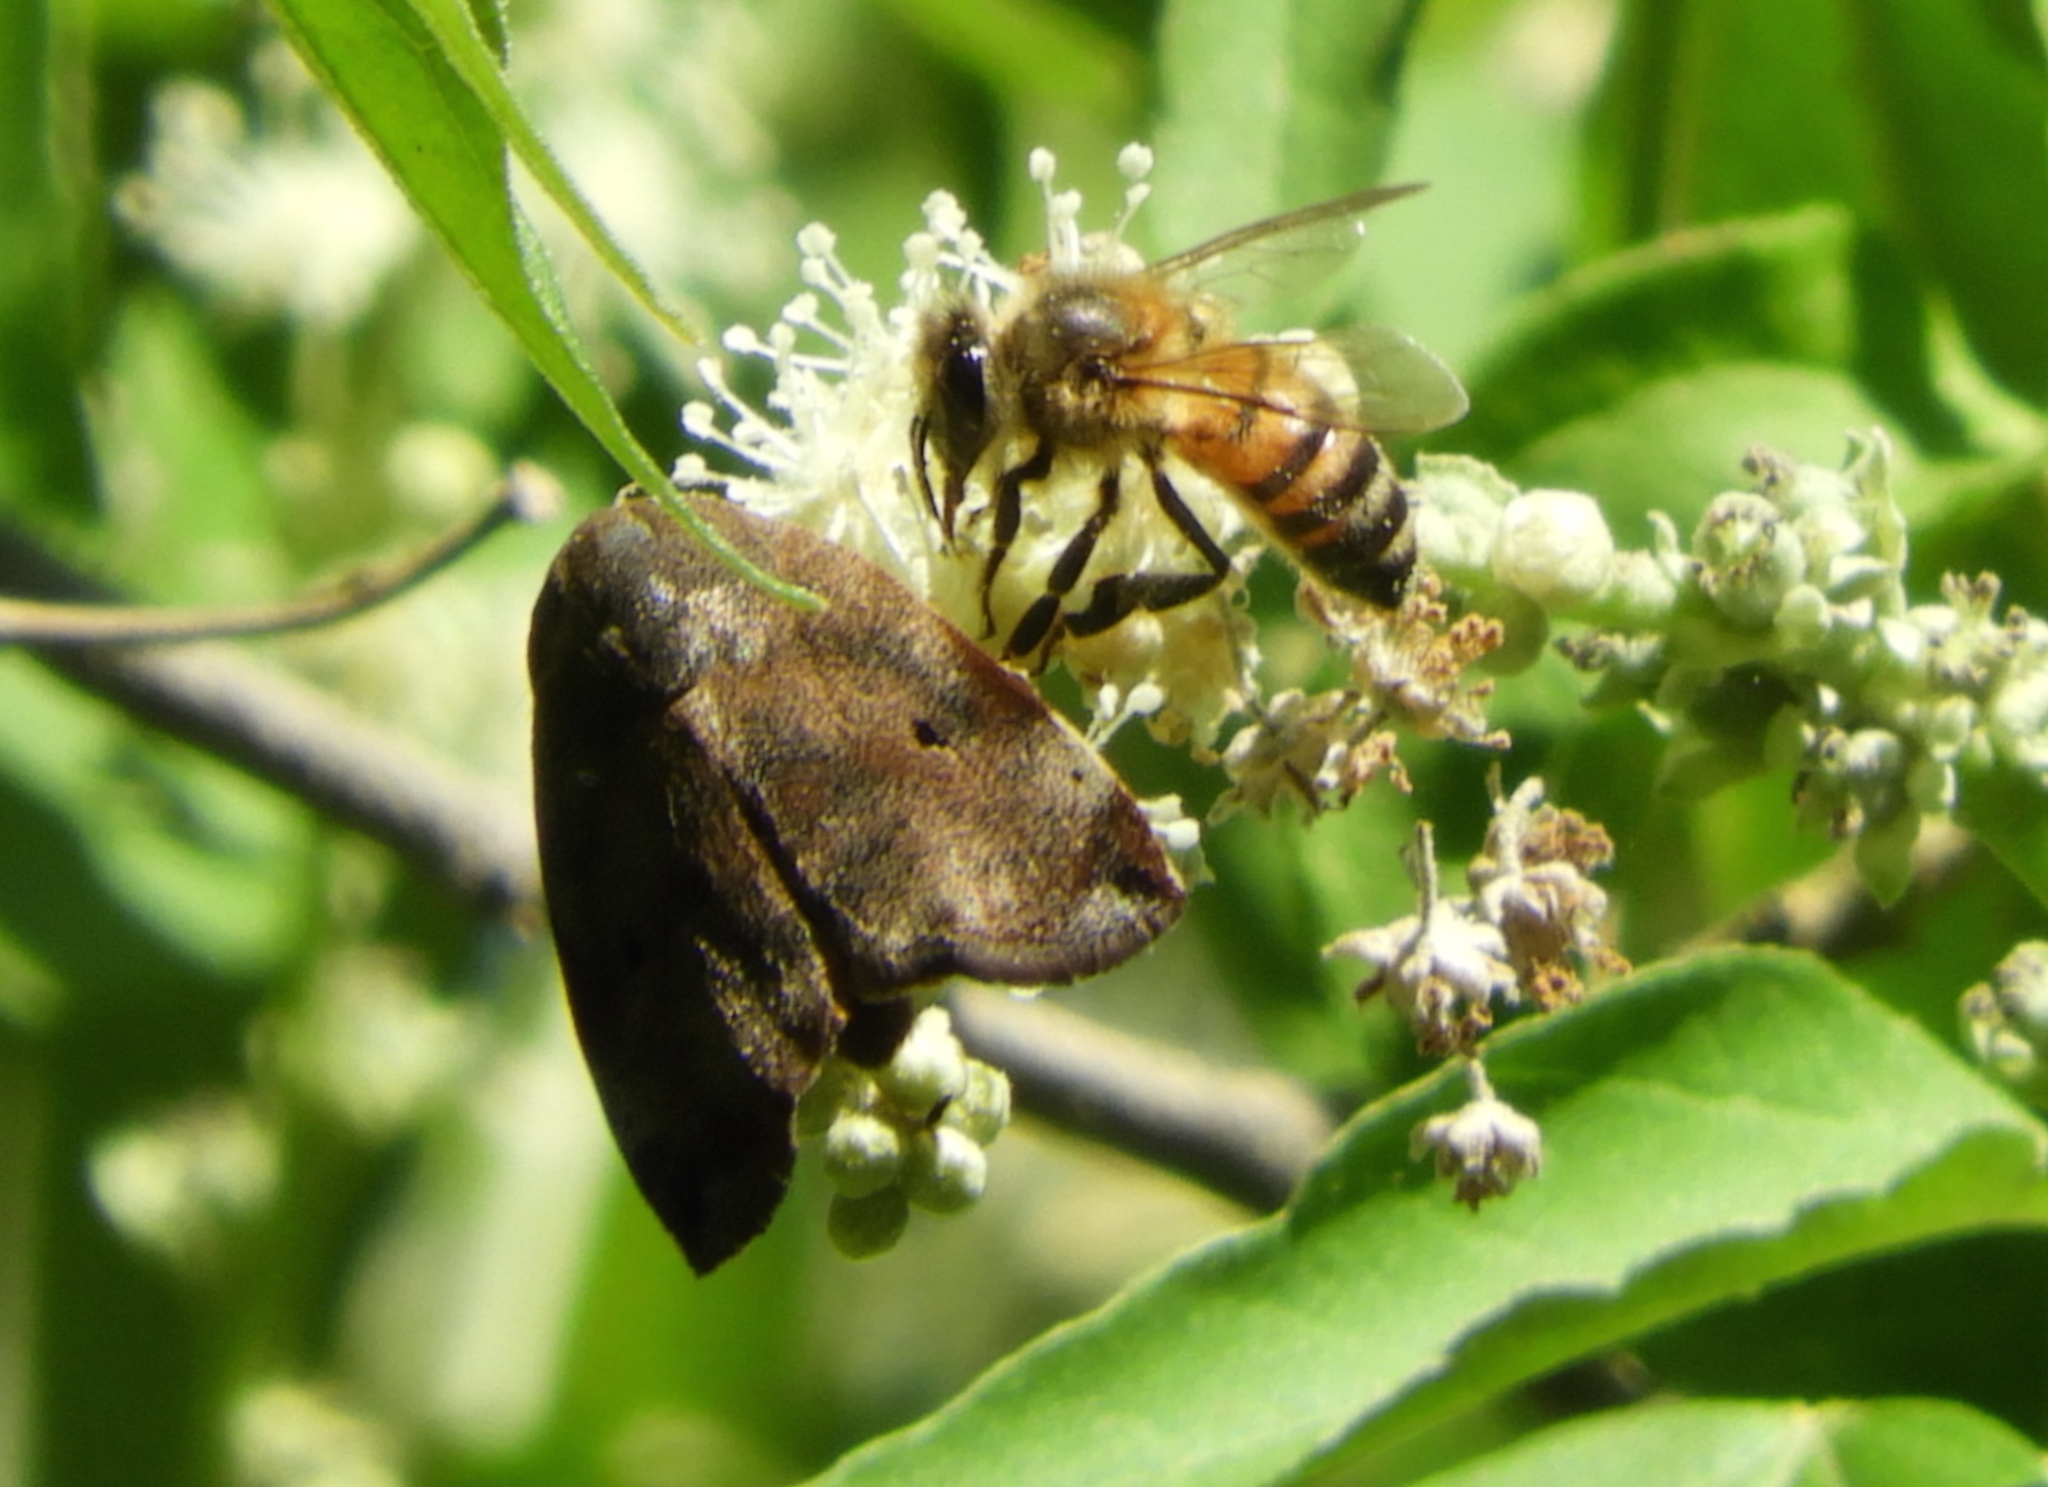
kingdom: Animalia
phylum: Arthropoda
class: Insecta
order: Hymenoptera
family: Apidae
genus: Apis
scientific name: Apis mellifera
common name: Honey bee
